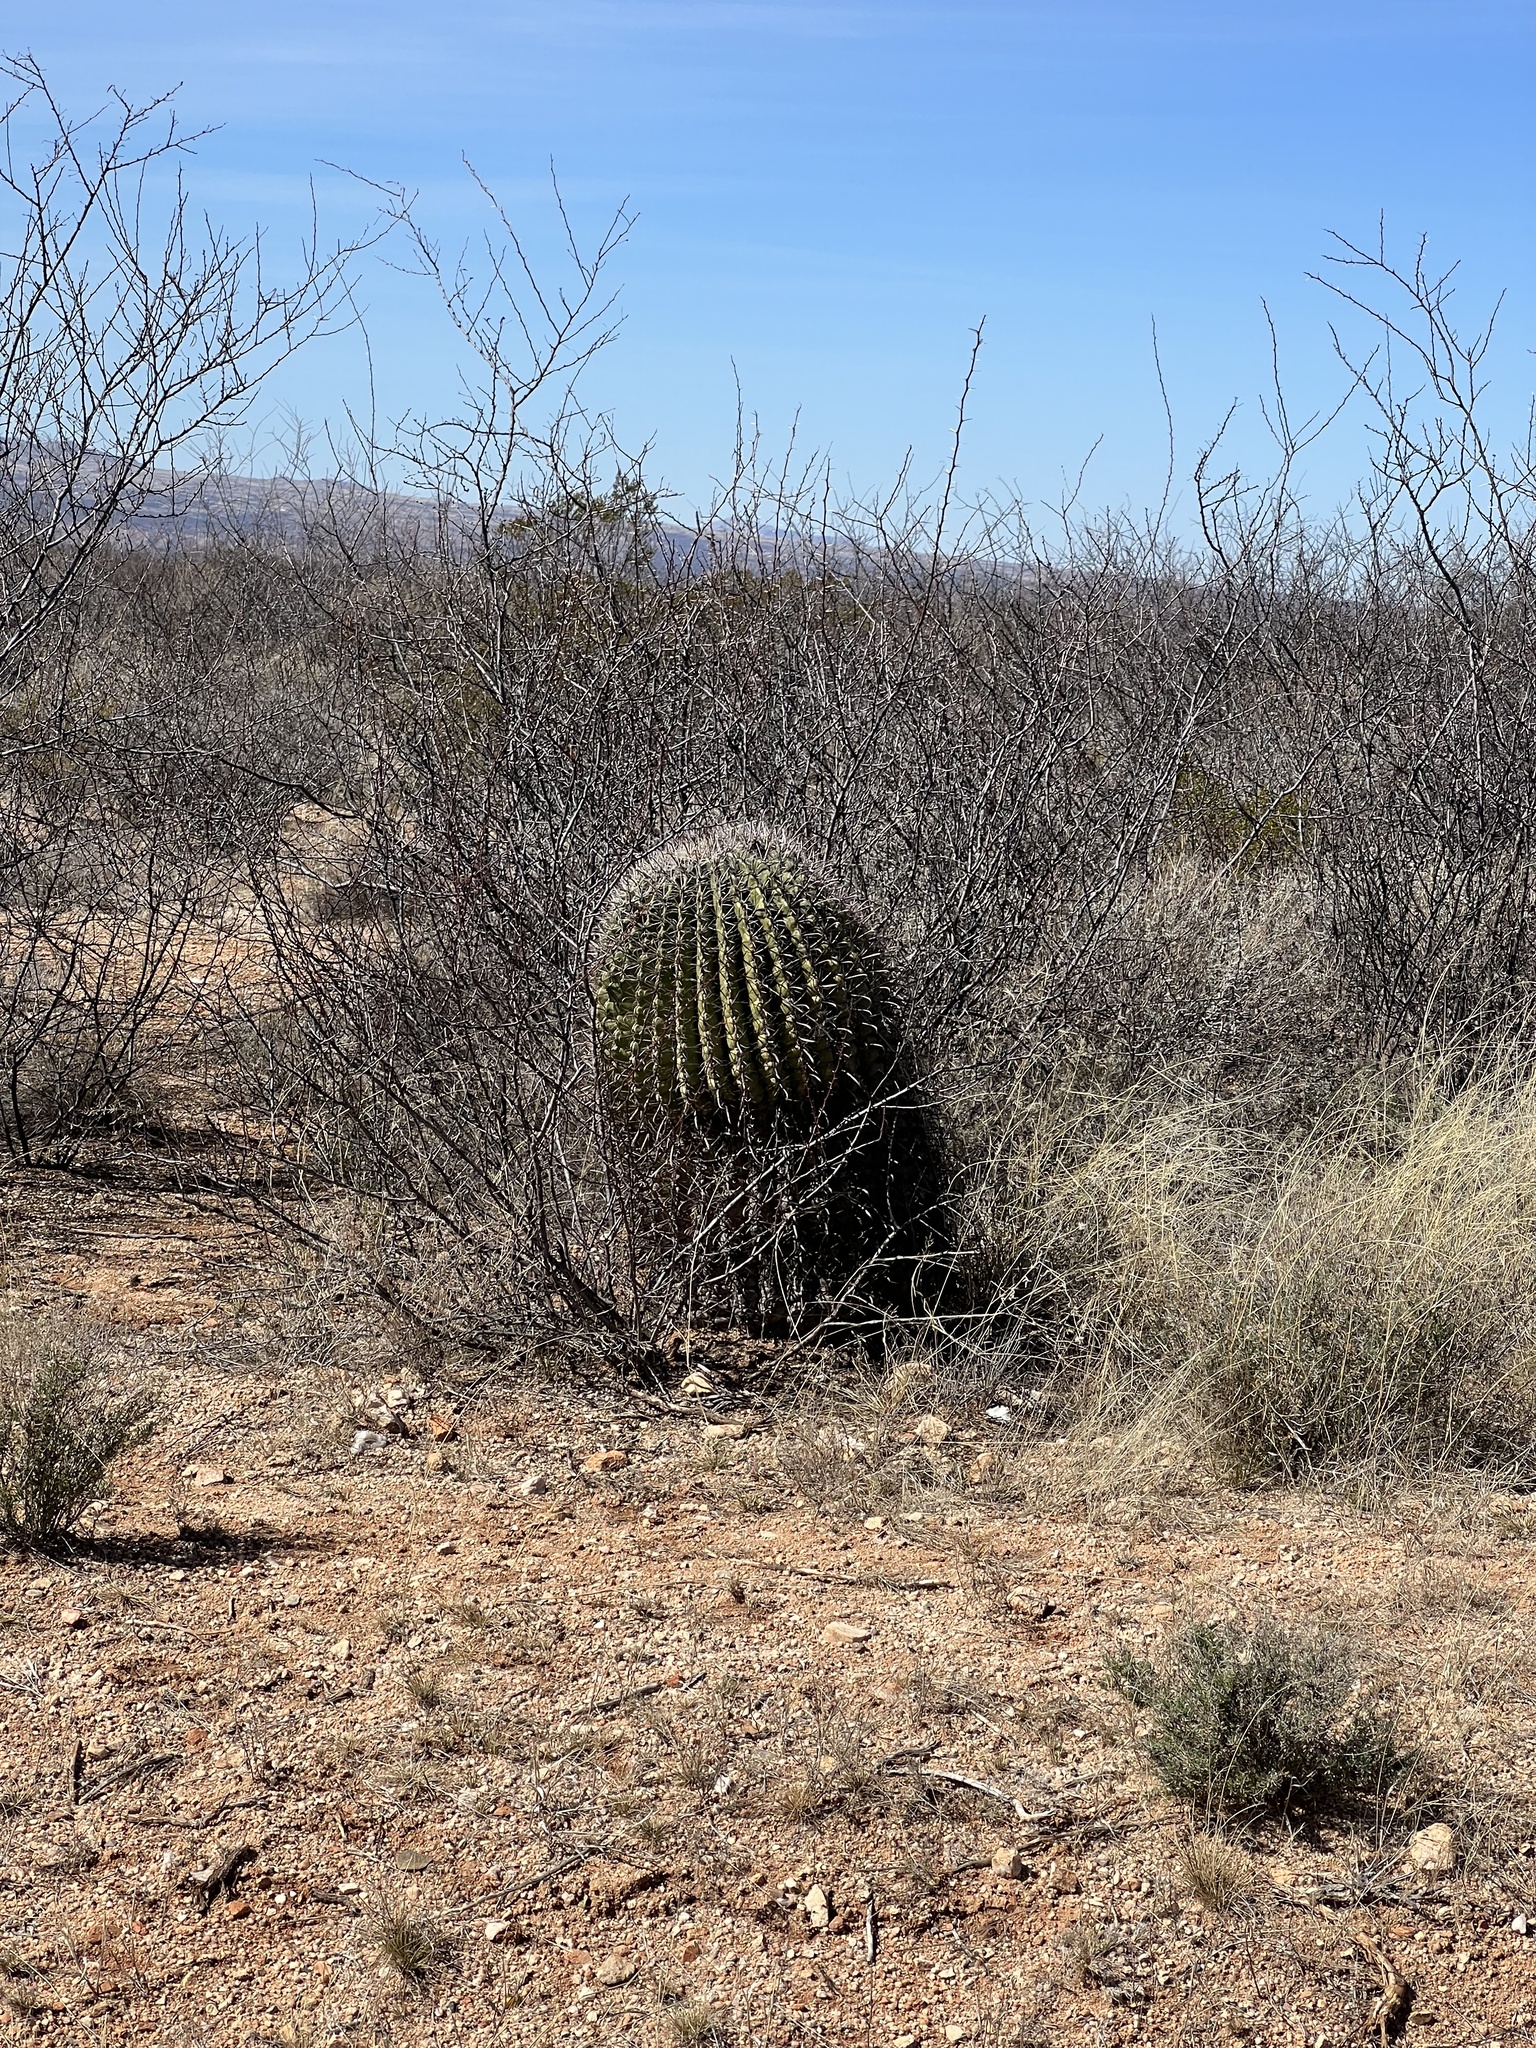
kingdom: Plantae
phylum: Tracheophyta
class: Magnoliopsida
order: Caryophyllales
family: Cactaceae
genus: Ferocactus
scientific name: Ferocactus wislizeni
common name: Candy barrel cactus
